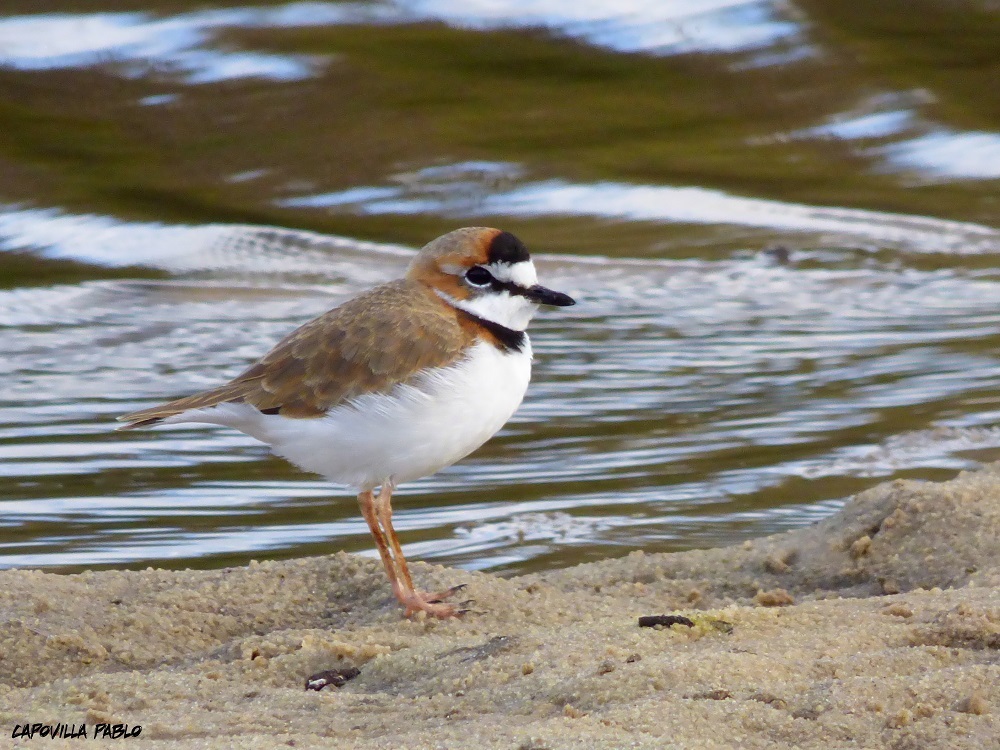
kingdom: Animalia
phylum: Chordata
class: Aves
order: Charadriiformes
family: Charadriidae
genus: Anarhynchus
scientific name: Anarhynchus
